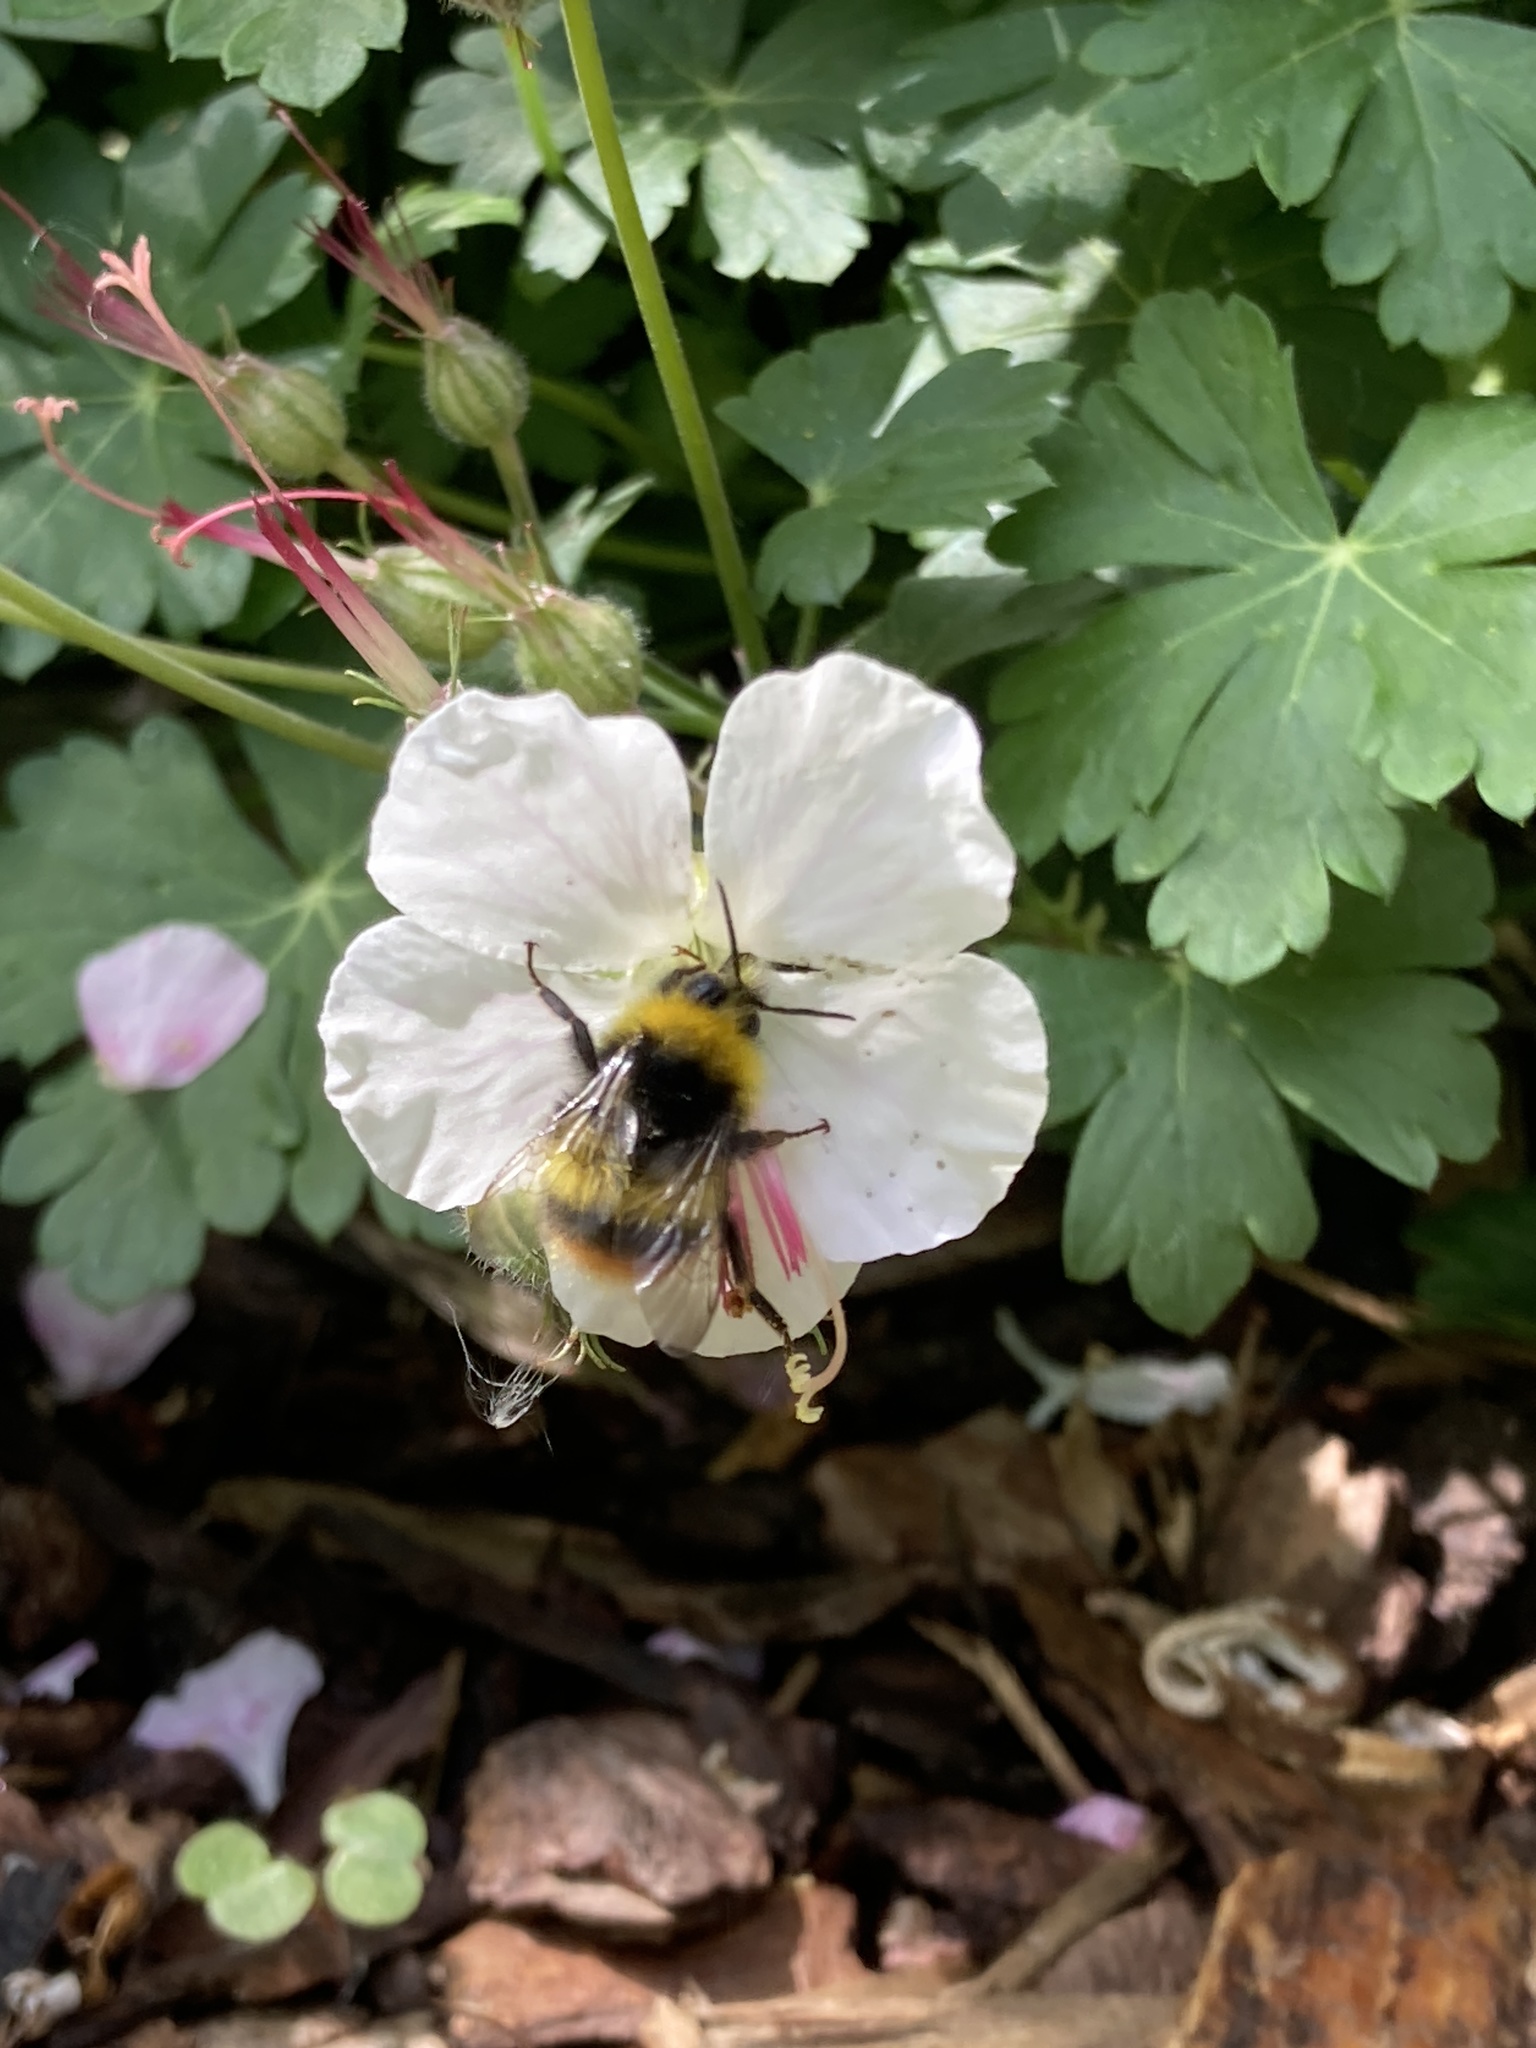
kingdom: Animalia
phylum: Arthropoda
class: Insecta
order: Hymenoptera
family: Apidae
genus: Bombus
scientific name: Bombus pratorum
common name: Early humble-bee
